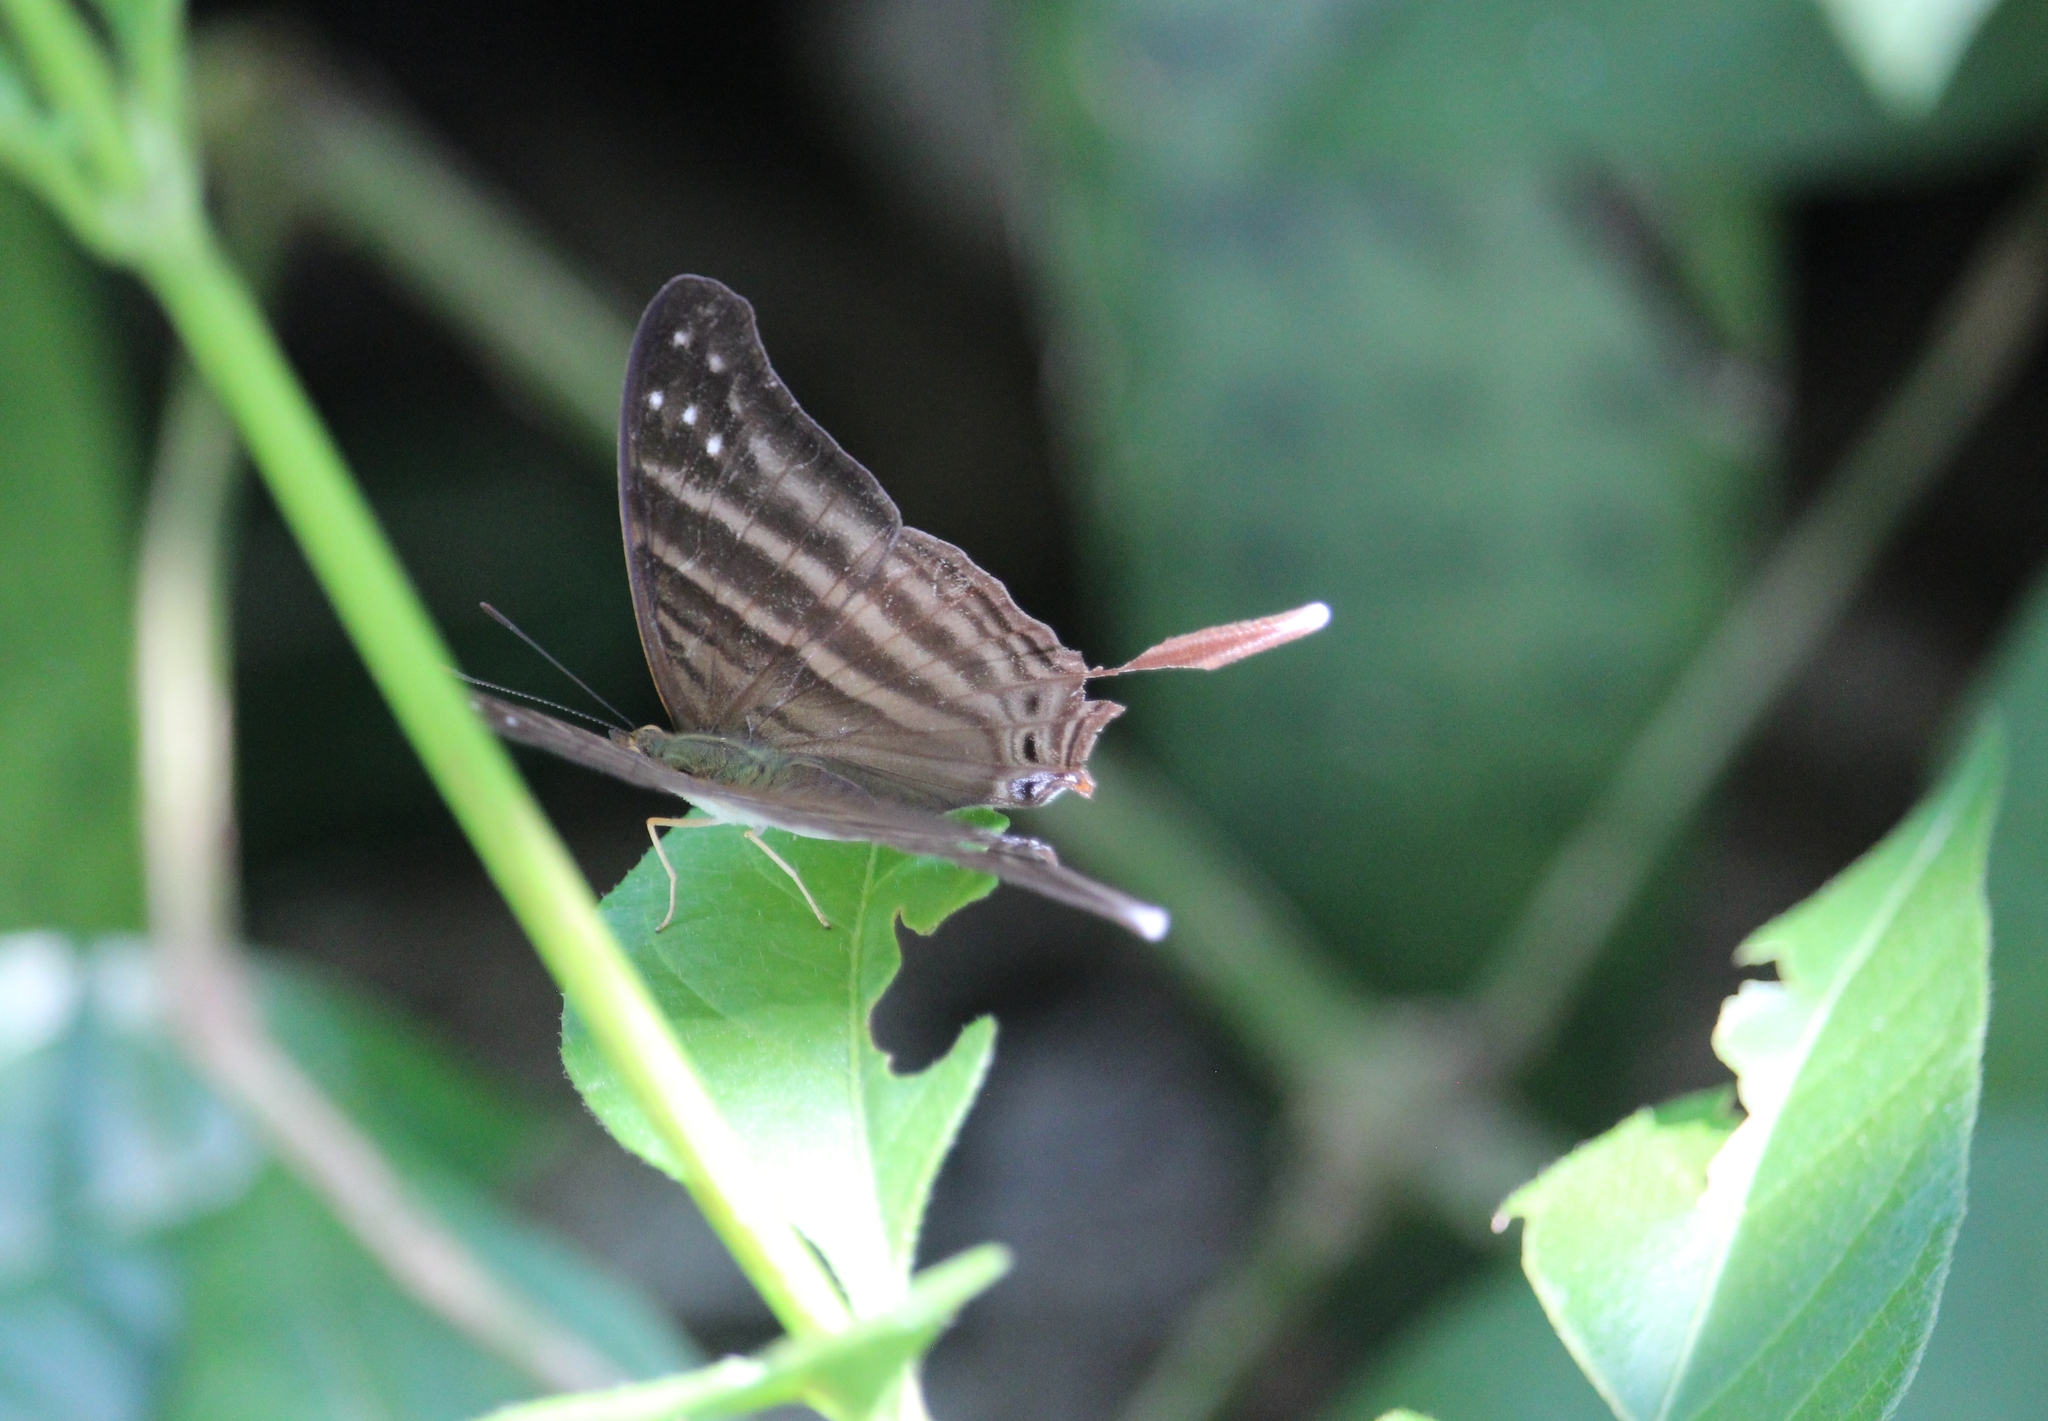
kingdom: Animalia
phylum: Arthropoda
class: Insecta
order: Lepidoptera
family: Nymphalidae
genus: Marpesia
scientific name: Marpesia chiron
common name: Many-banded daggerwing
